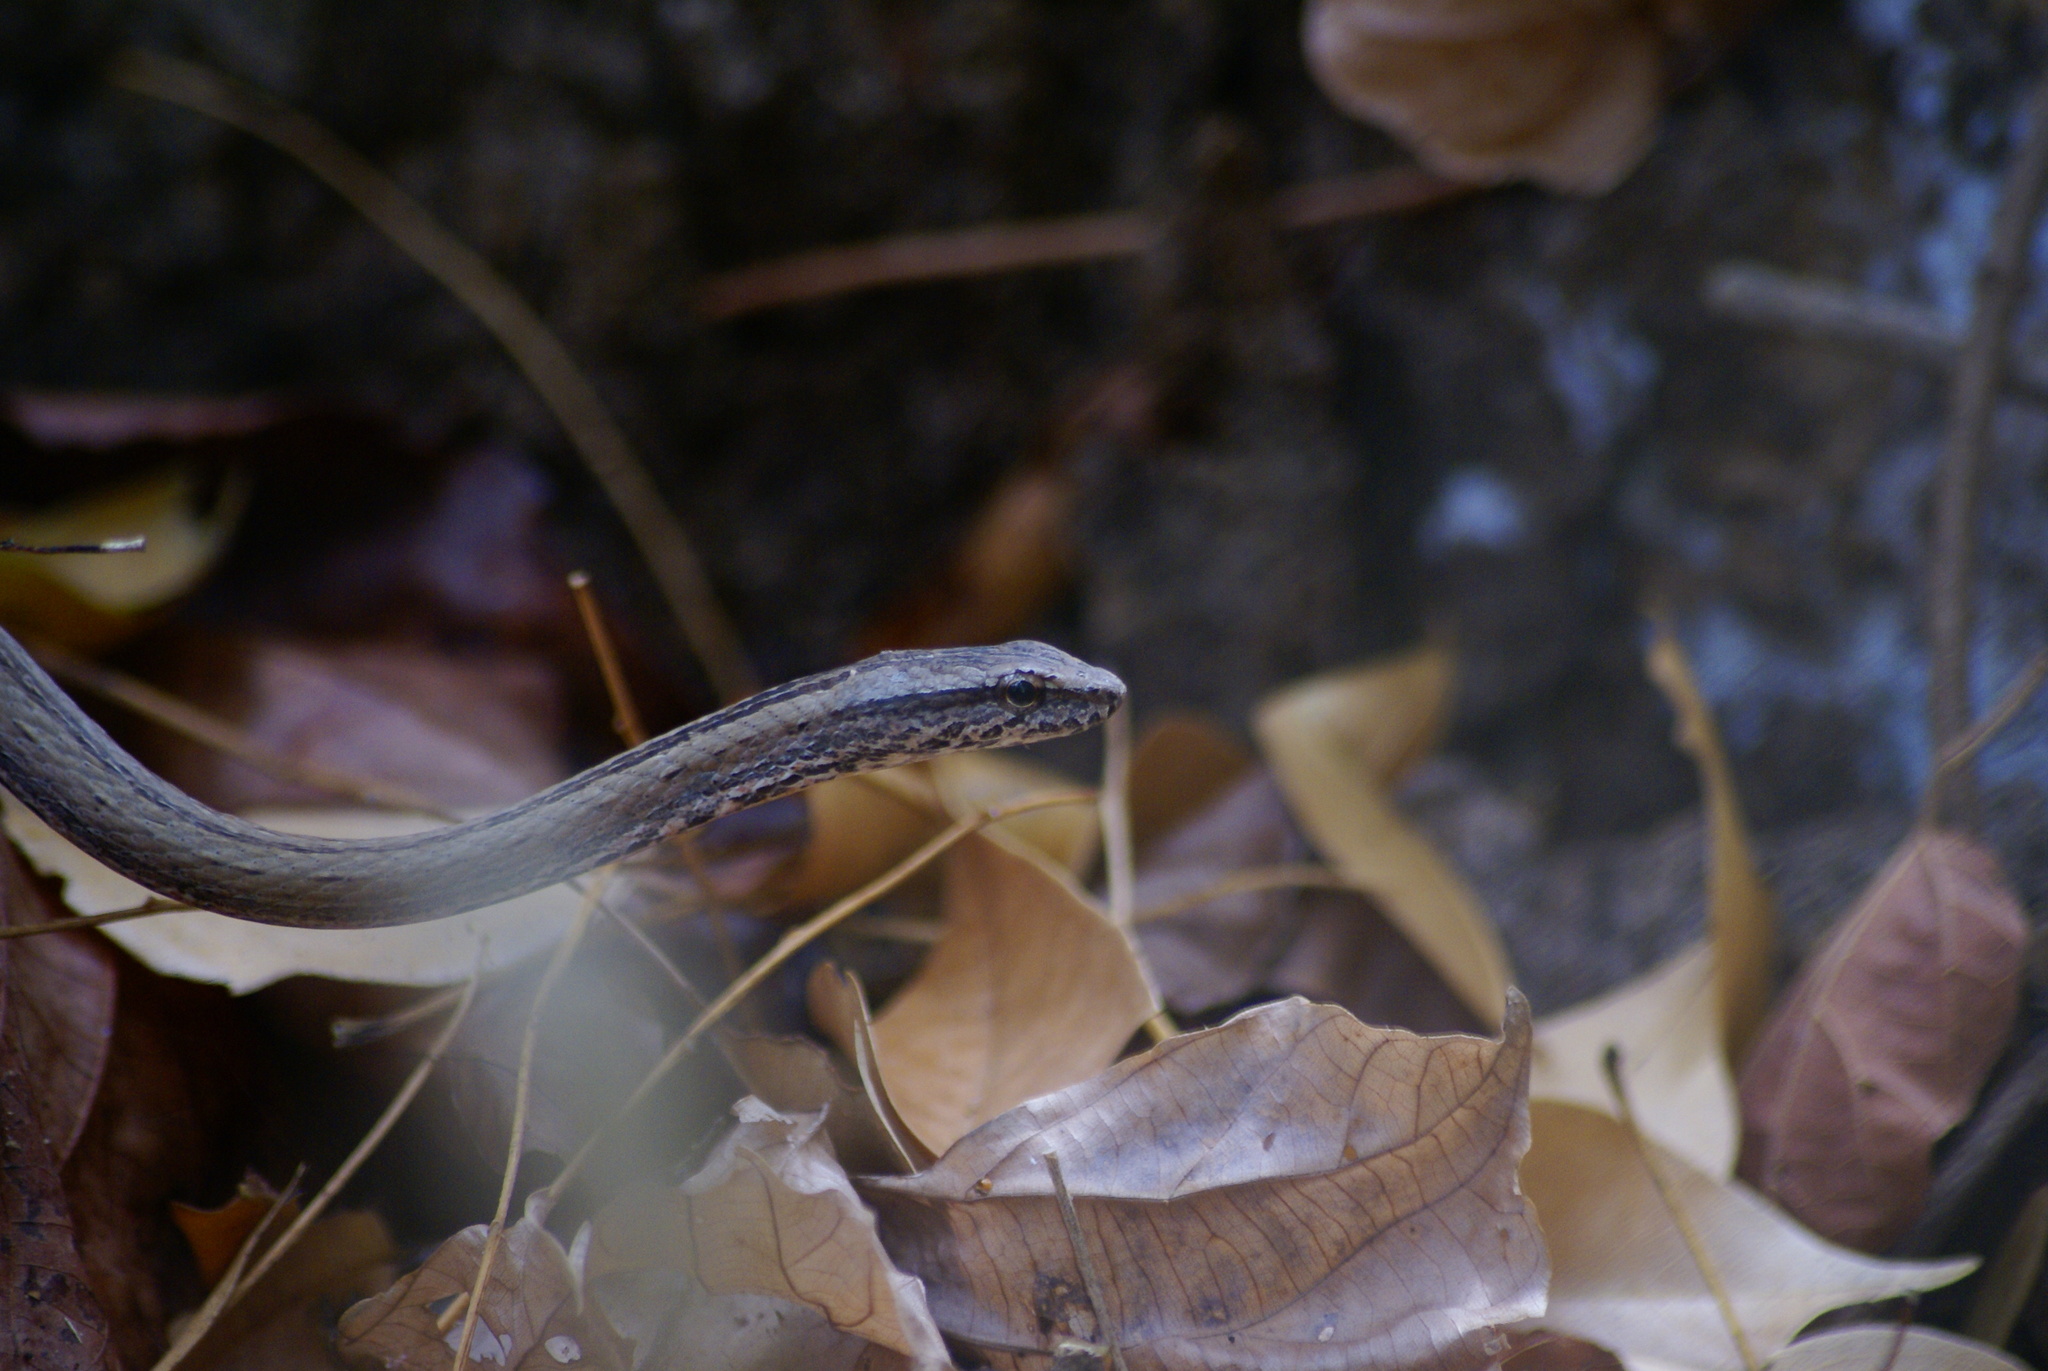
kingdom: Animalia
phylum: Chordata
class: Squamata
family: Psammophiidae
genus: Mimophis
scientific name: Mimophis occultus
